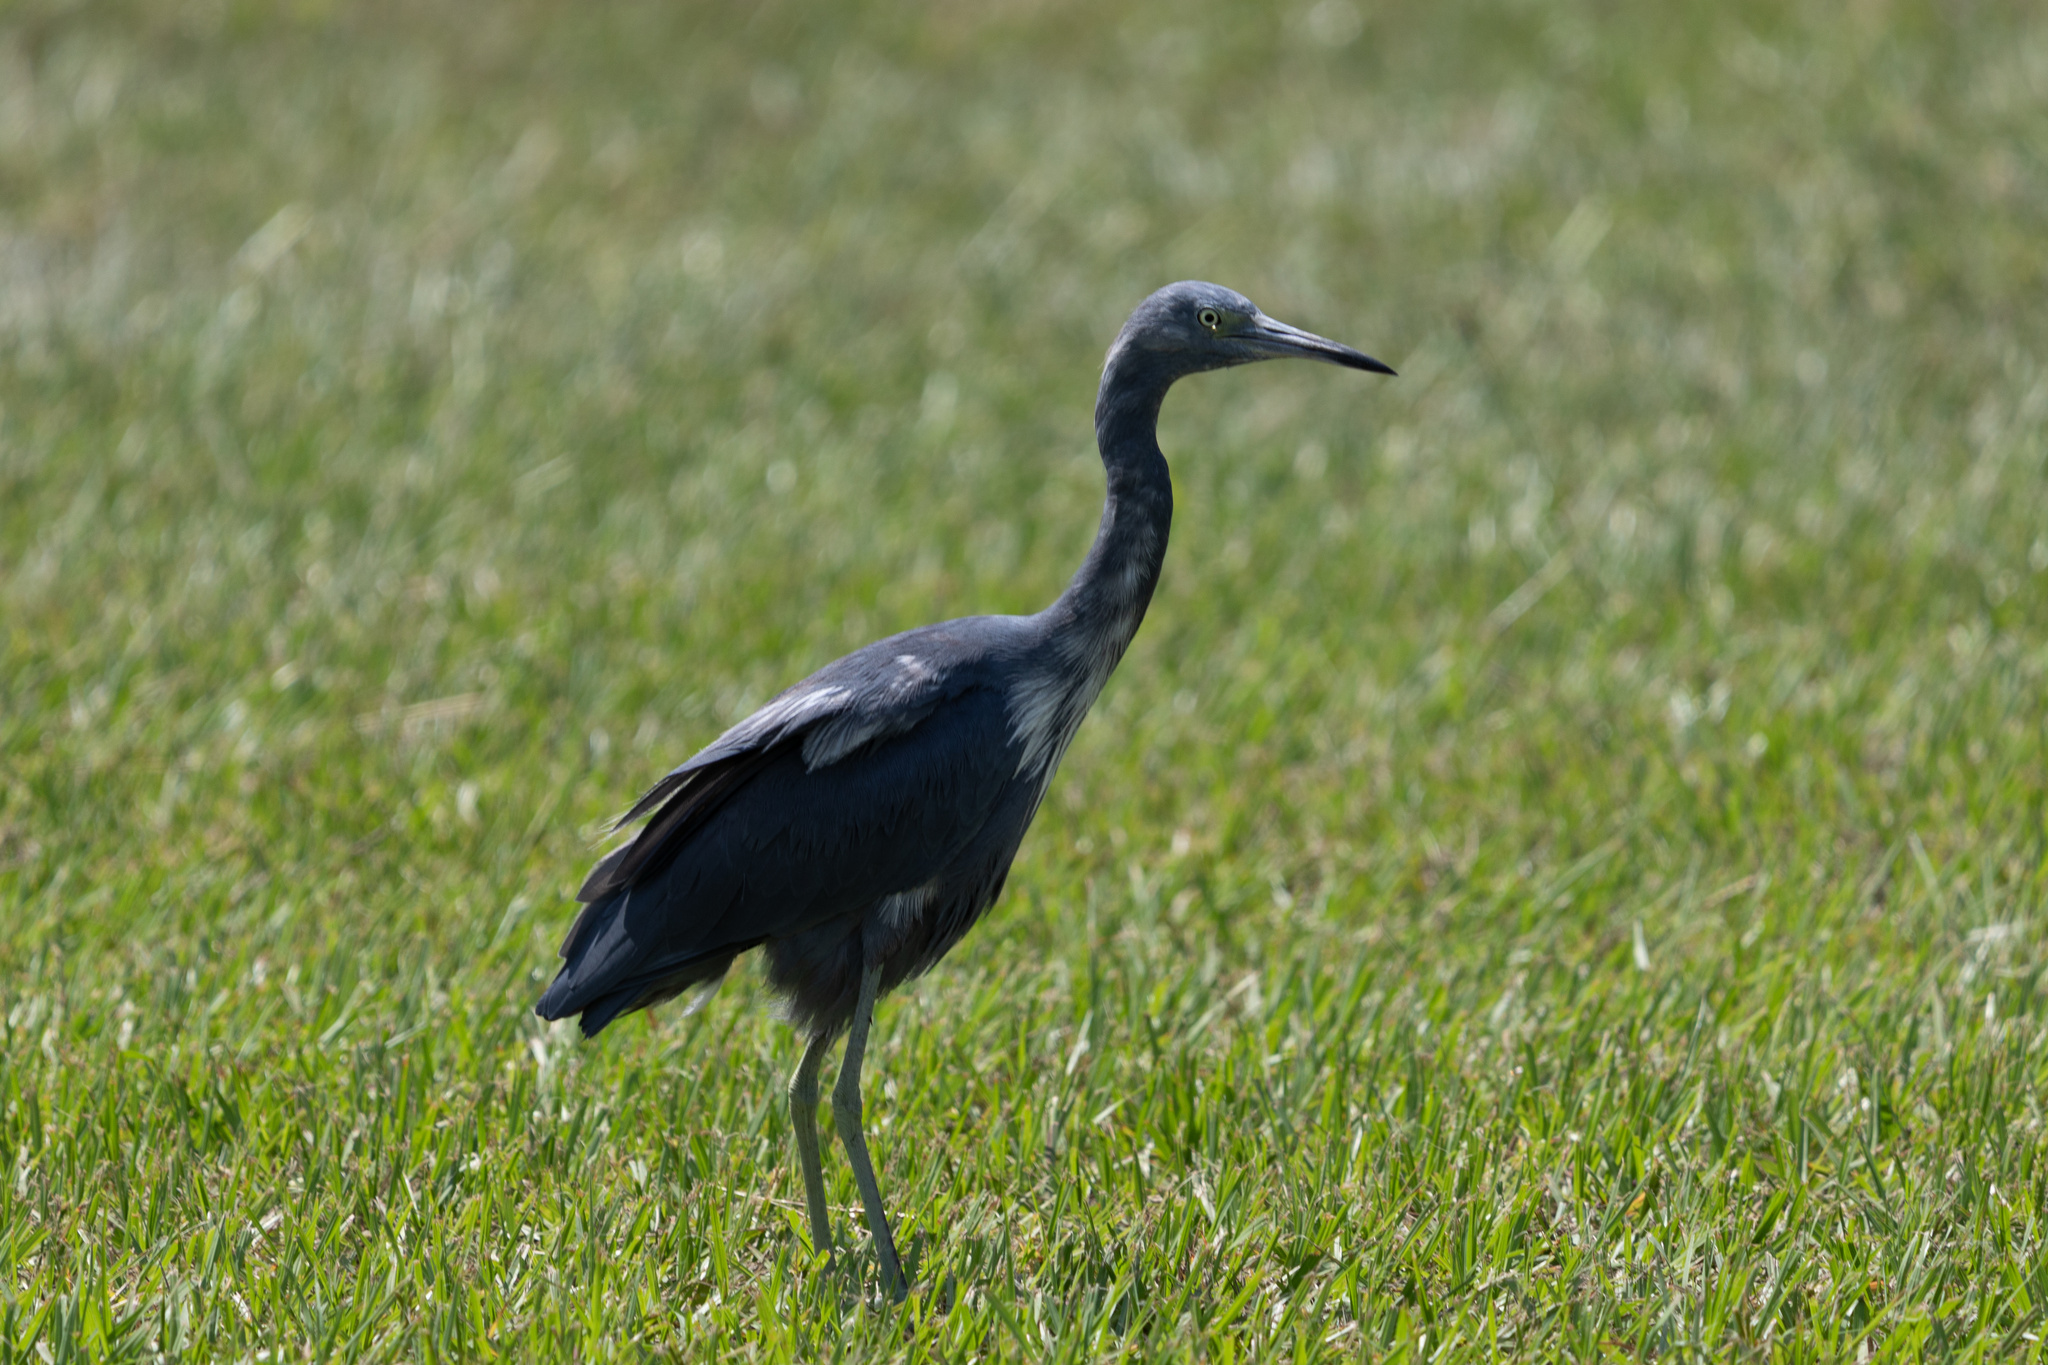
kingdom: Animalia
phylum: Chordata
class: Aves
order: Pelecaniformes
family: Ardeidae
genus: Egretta
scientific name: Egretta caerulea
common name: Little blue heron
